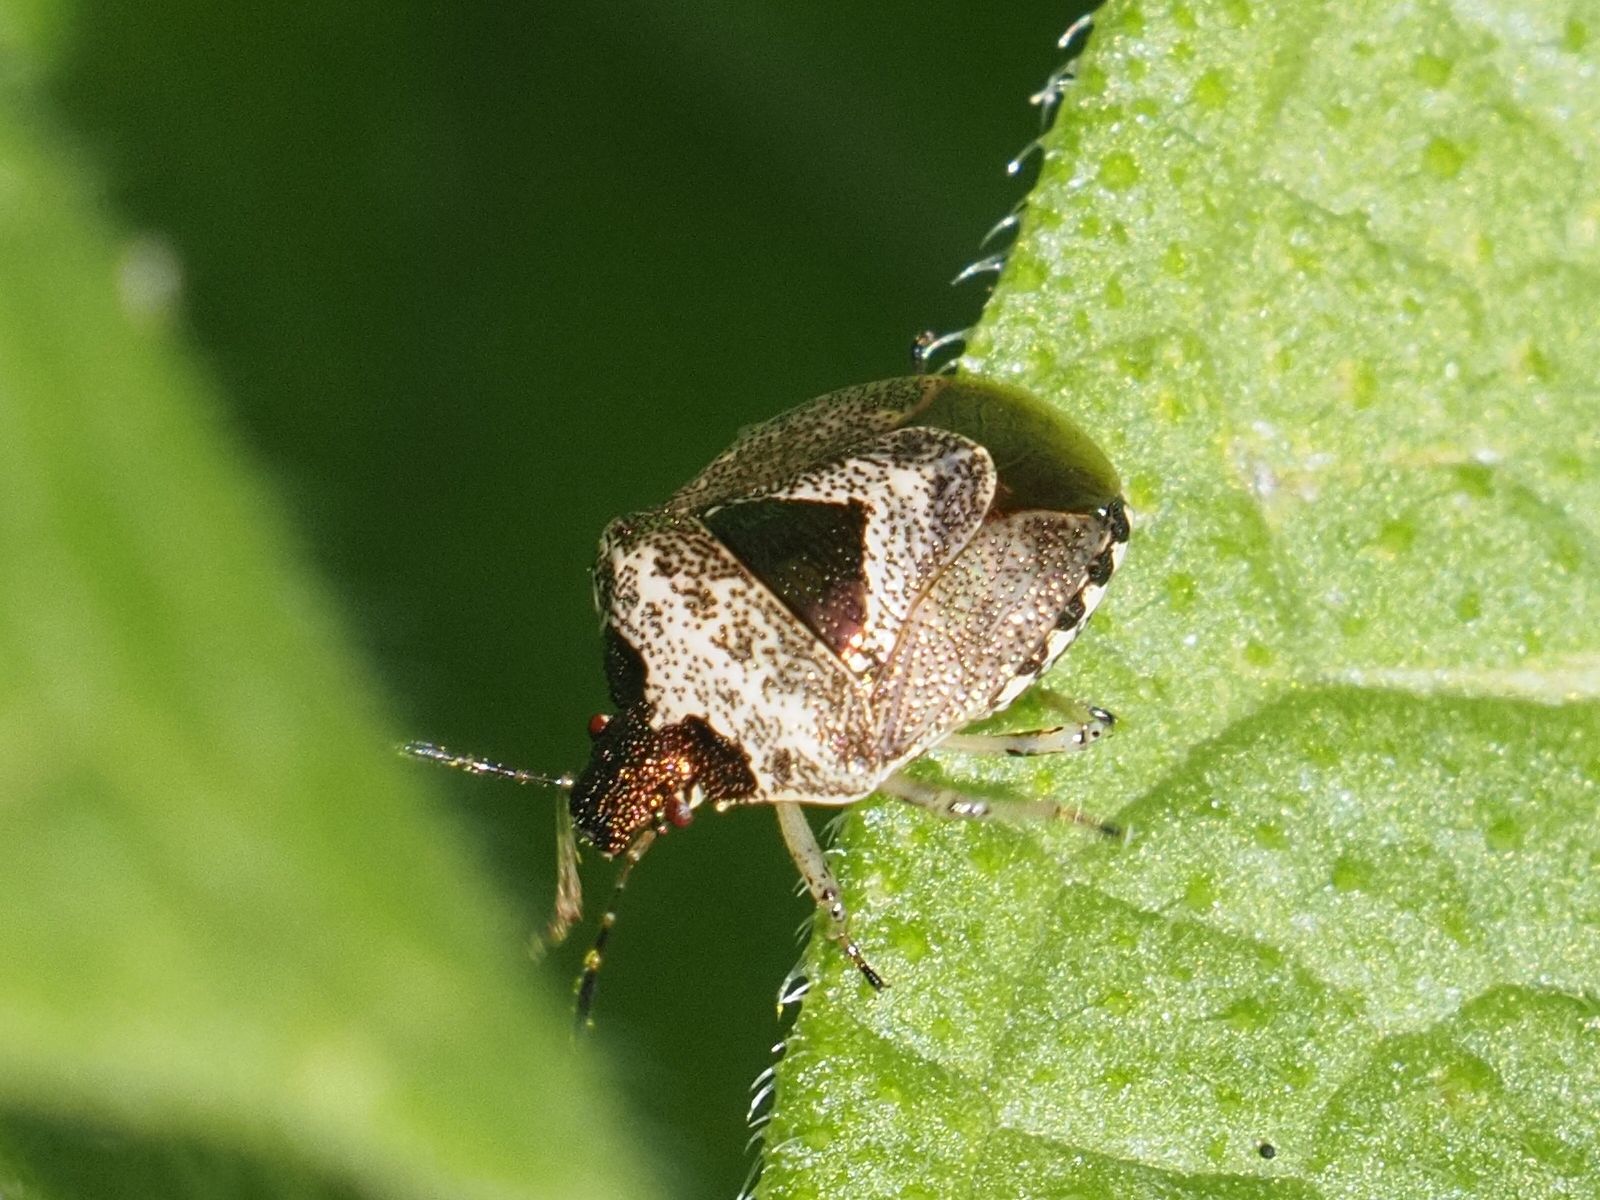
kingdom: Animalia
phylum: Arthropoda
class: Insecta
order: Hemiptera
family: Pentatomidae
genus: Eysarcoris
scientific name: Eysarcoris venustissimus
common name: Woundwort shieldbug
